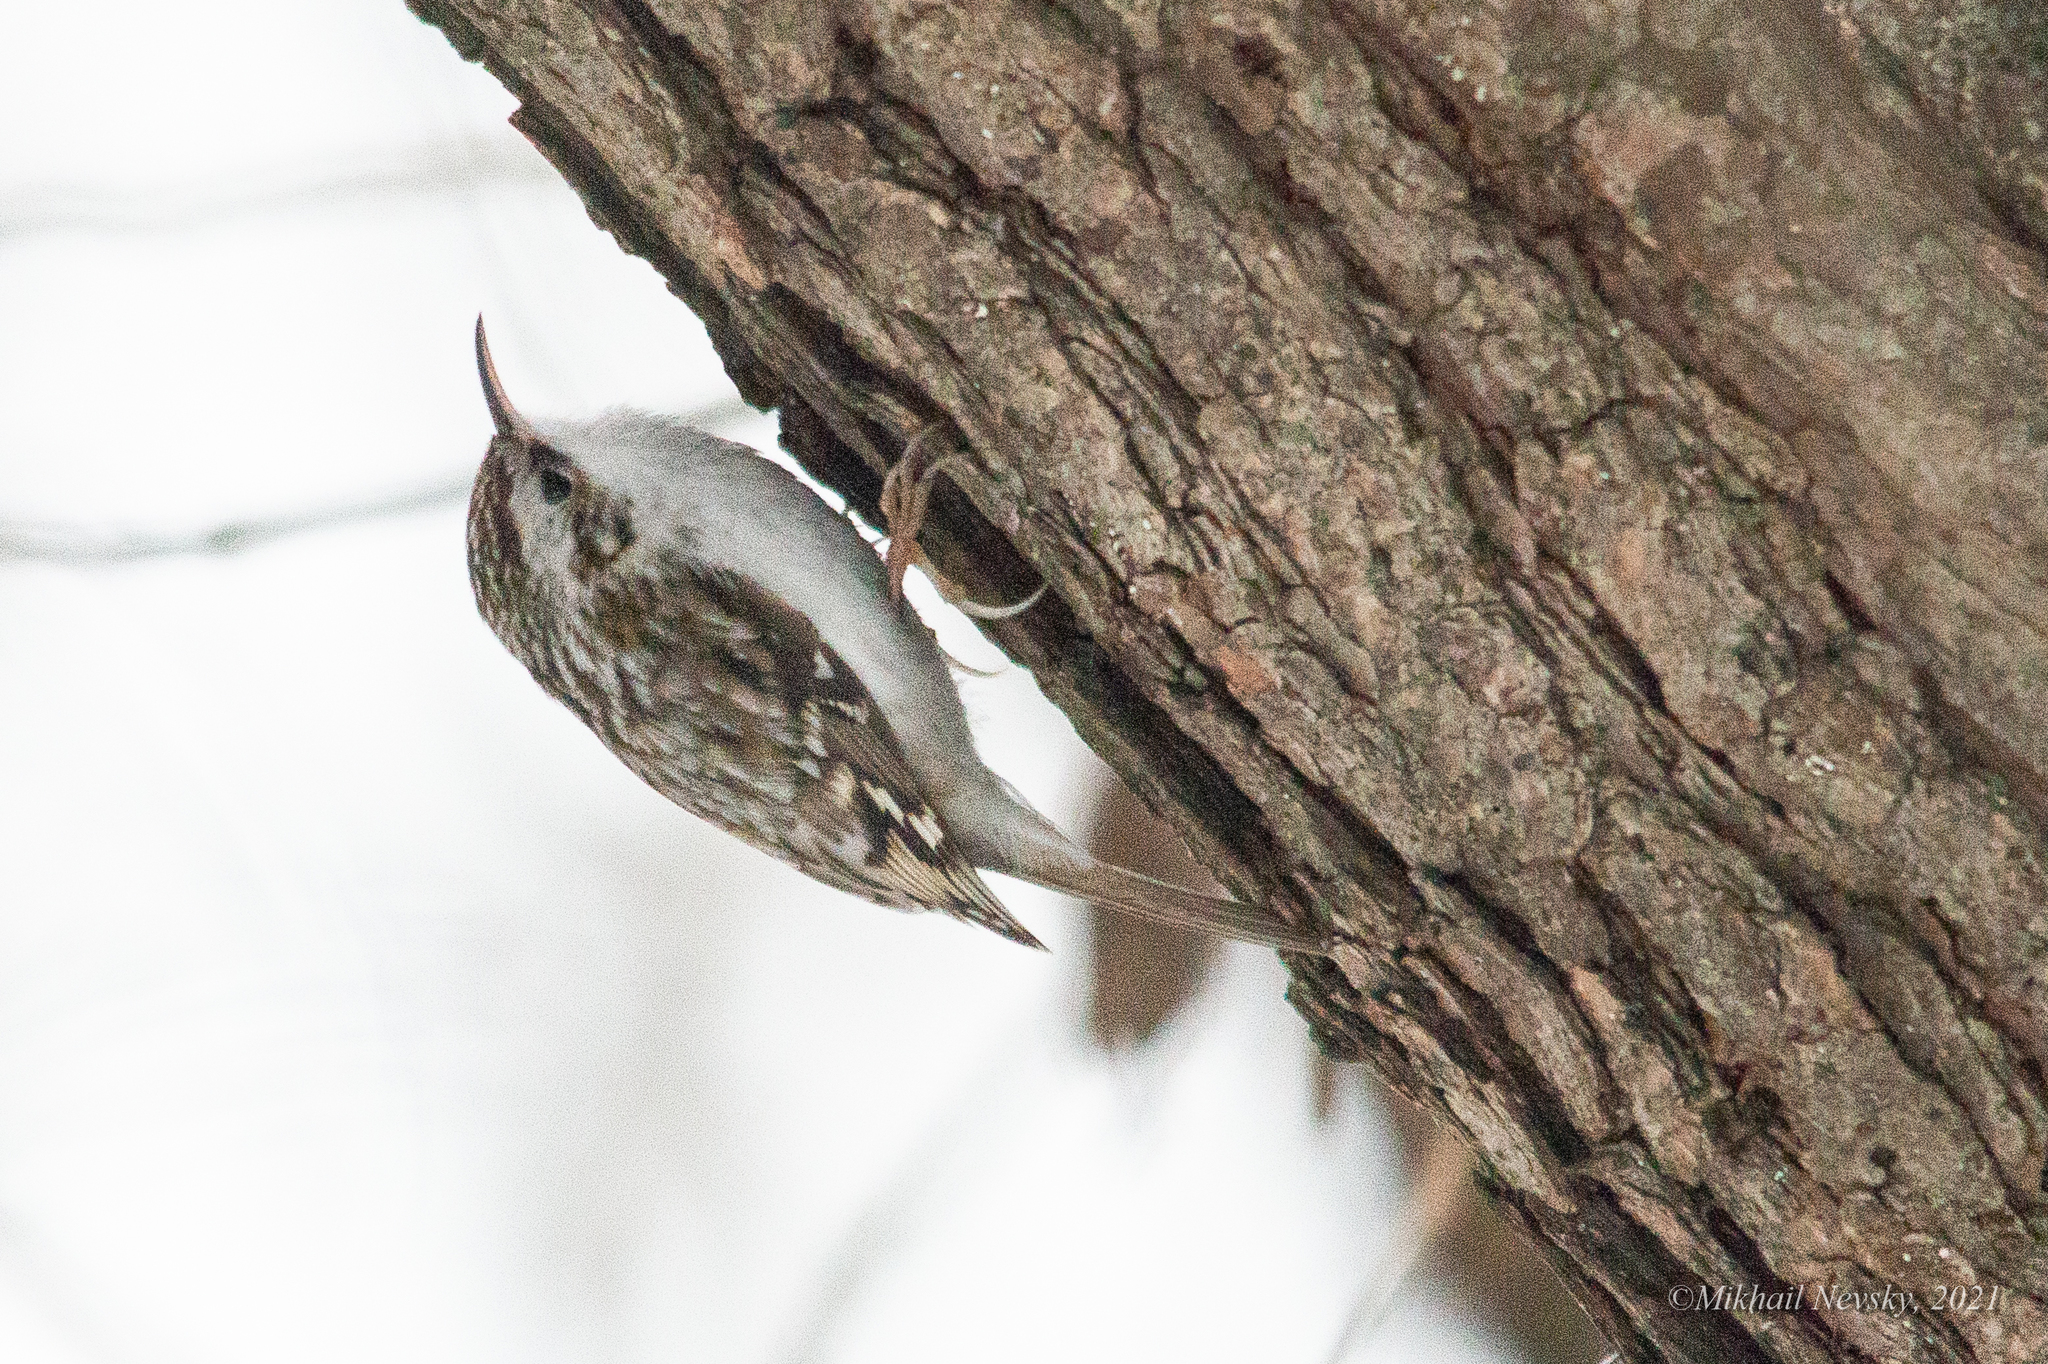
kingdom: Animalia
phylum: Chordata
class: Aves
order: Passeriformes
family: Certhiidae
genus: Certhia
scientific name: Certhia familiaris
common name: Eurasian treecreeper
